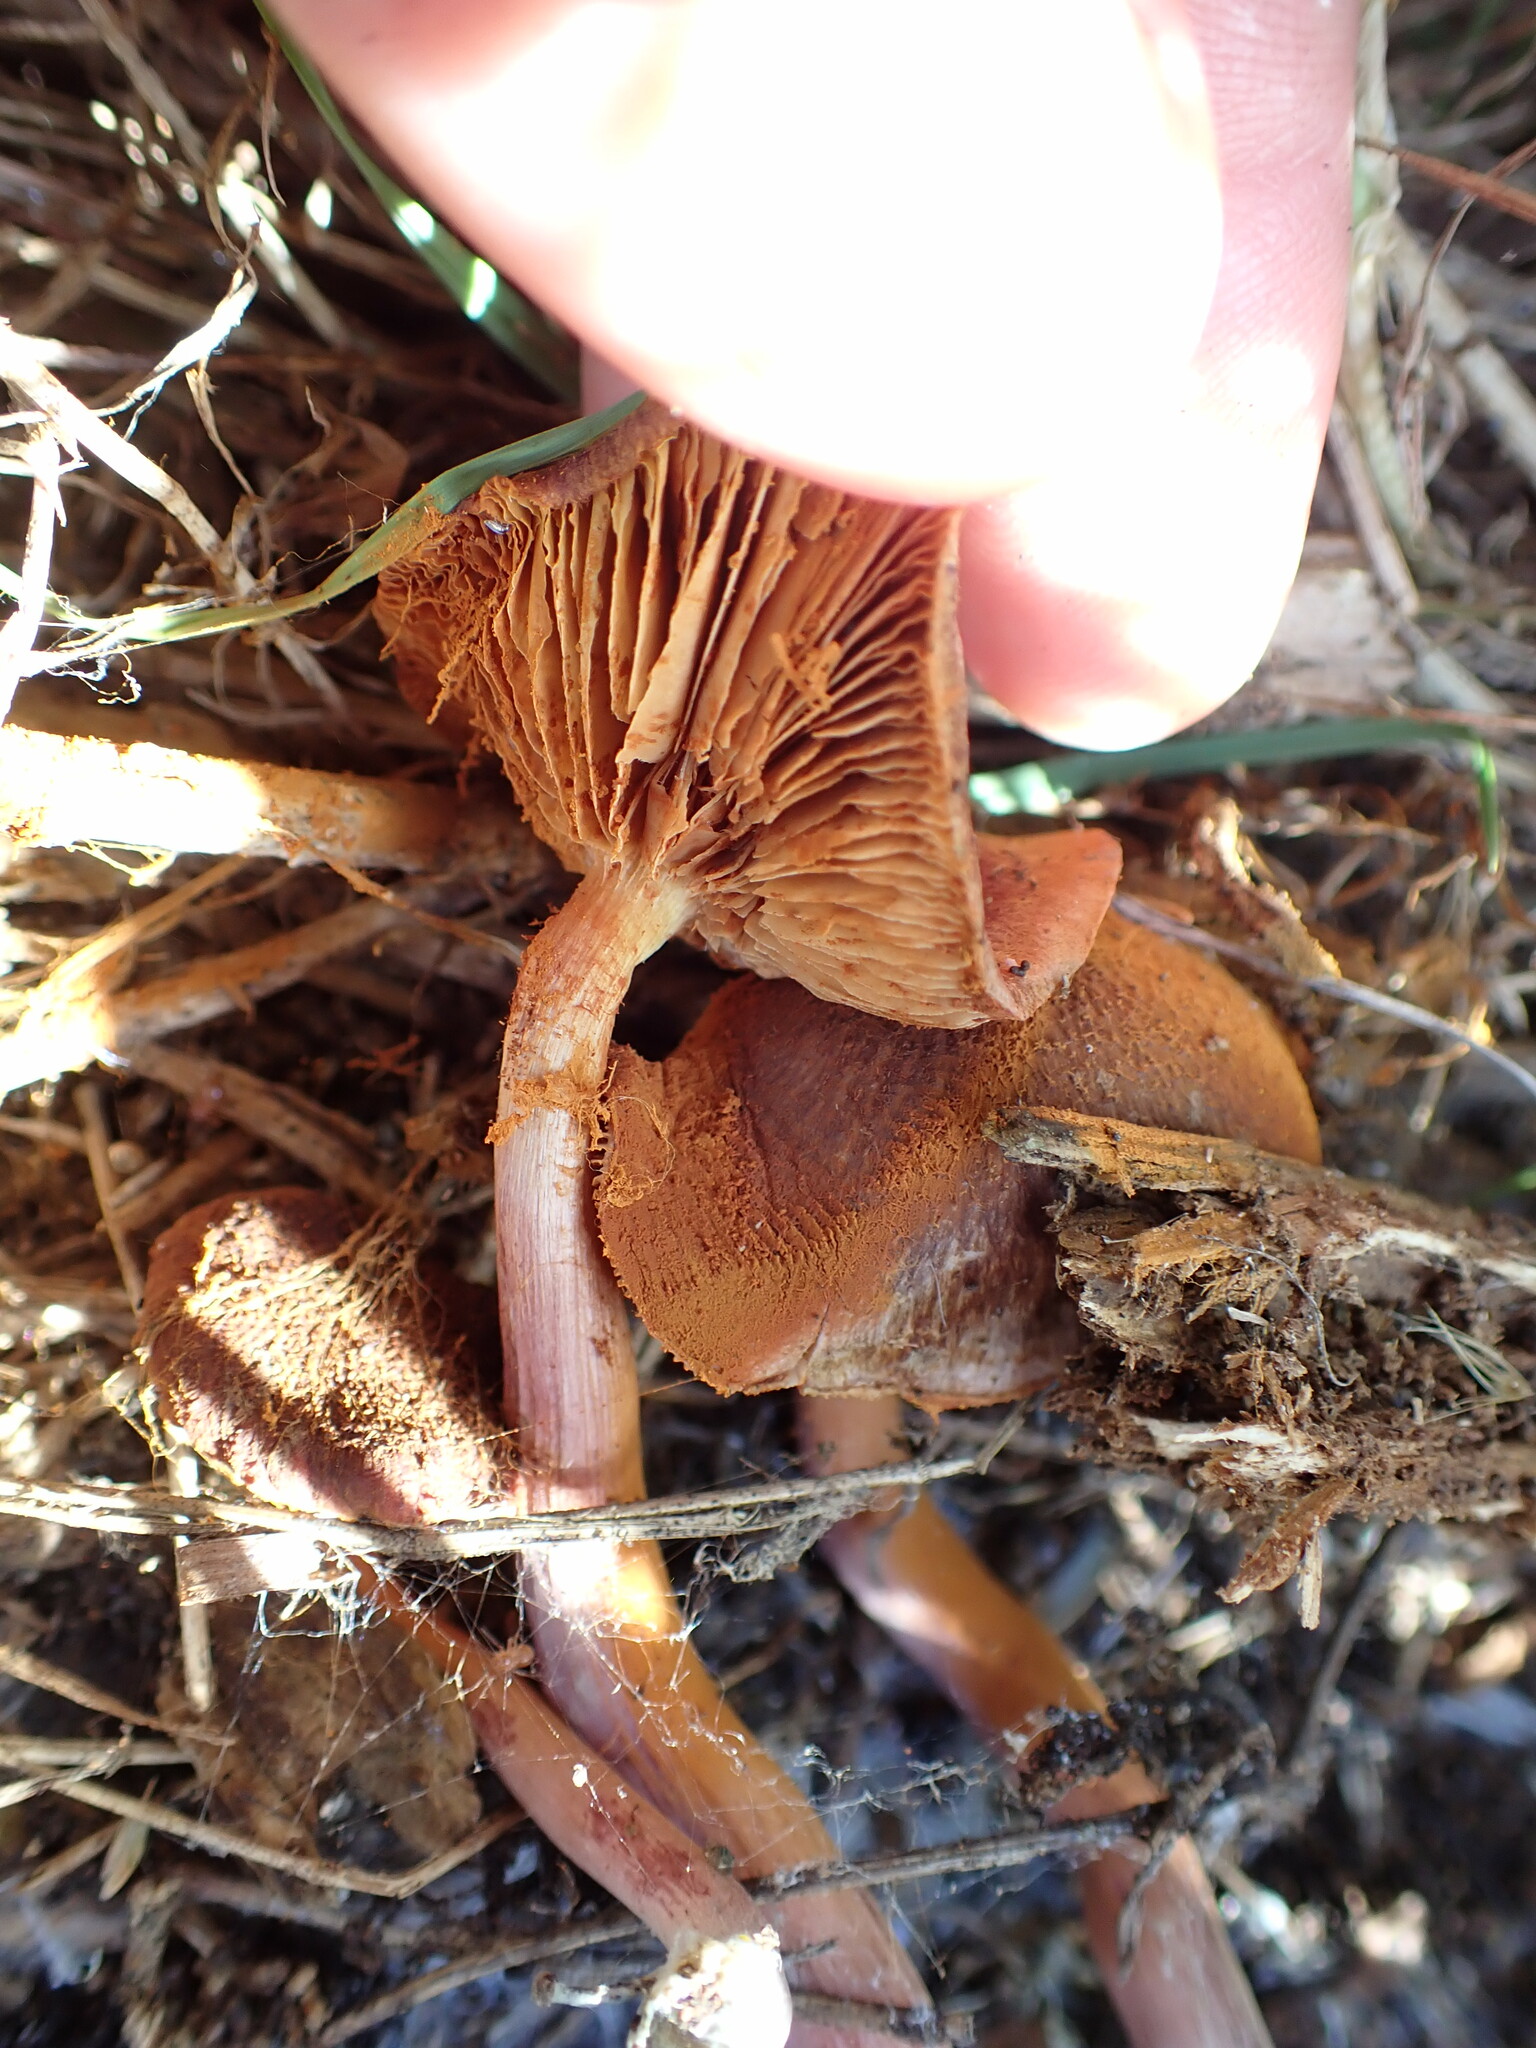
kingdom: Fungi
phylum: Basidiomycota
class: Agaricomycetes
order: Agaricales
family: Hymenogastraceae
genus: Gymnopilus
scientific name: Gymnopilus purpuratus
